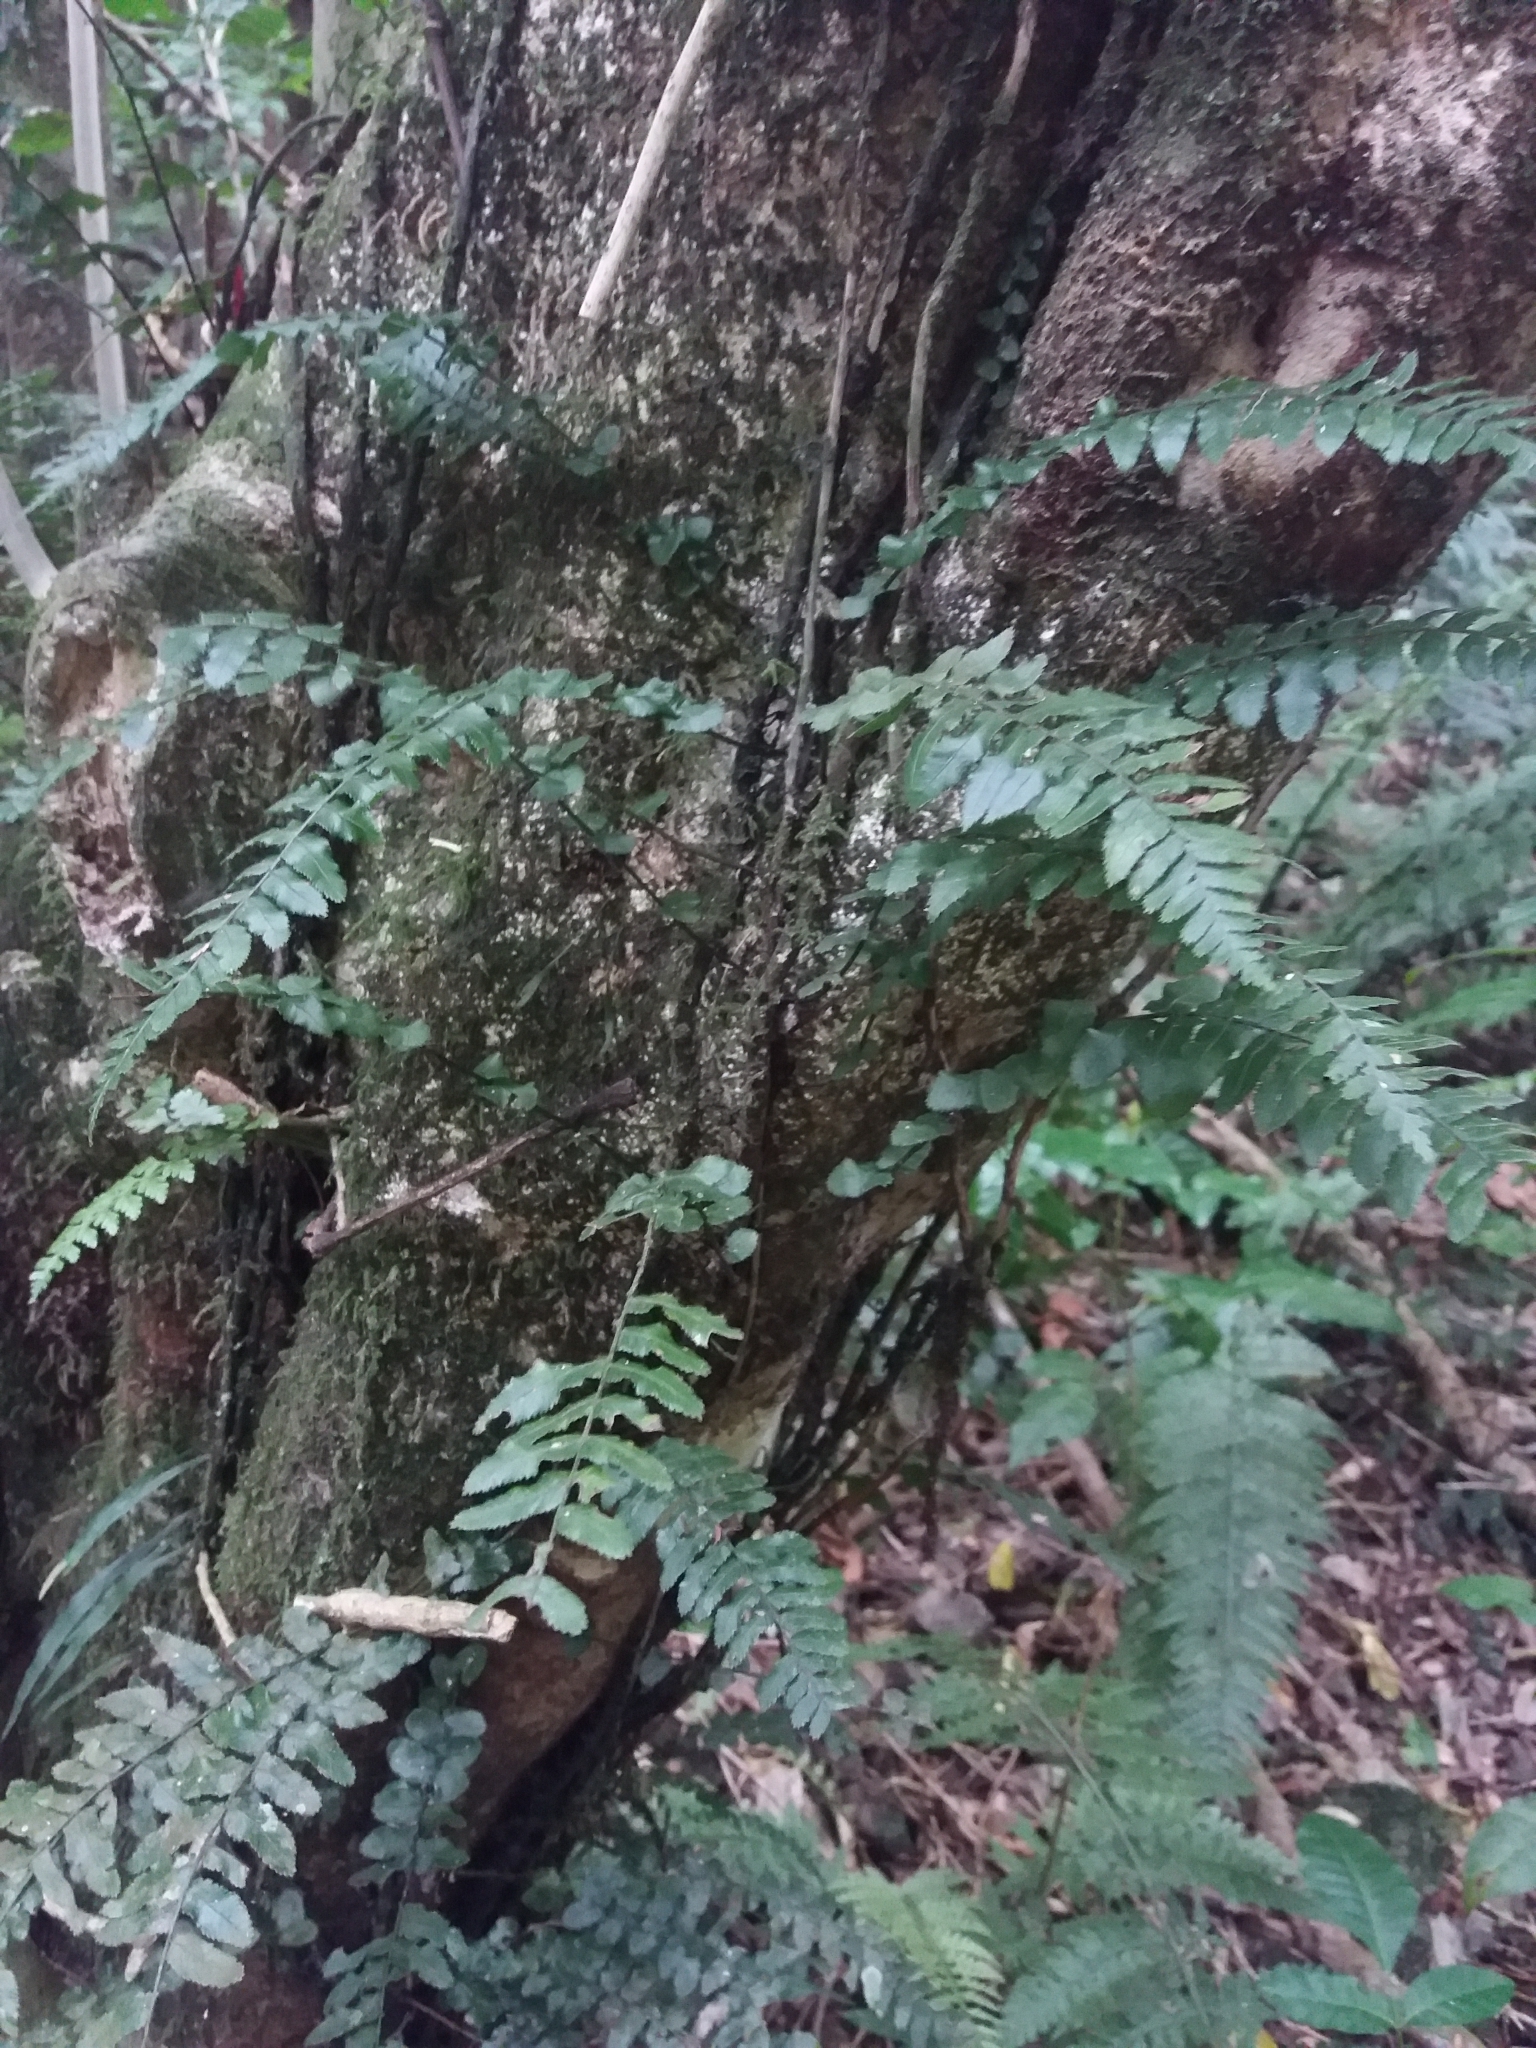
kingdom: Plantae
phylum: Tracheophyta
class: Polypodiopsida
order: Polypodiales
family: Blechnaceae
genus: Icarus
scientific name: Icarus filiformis
